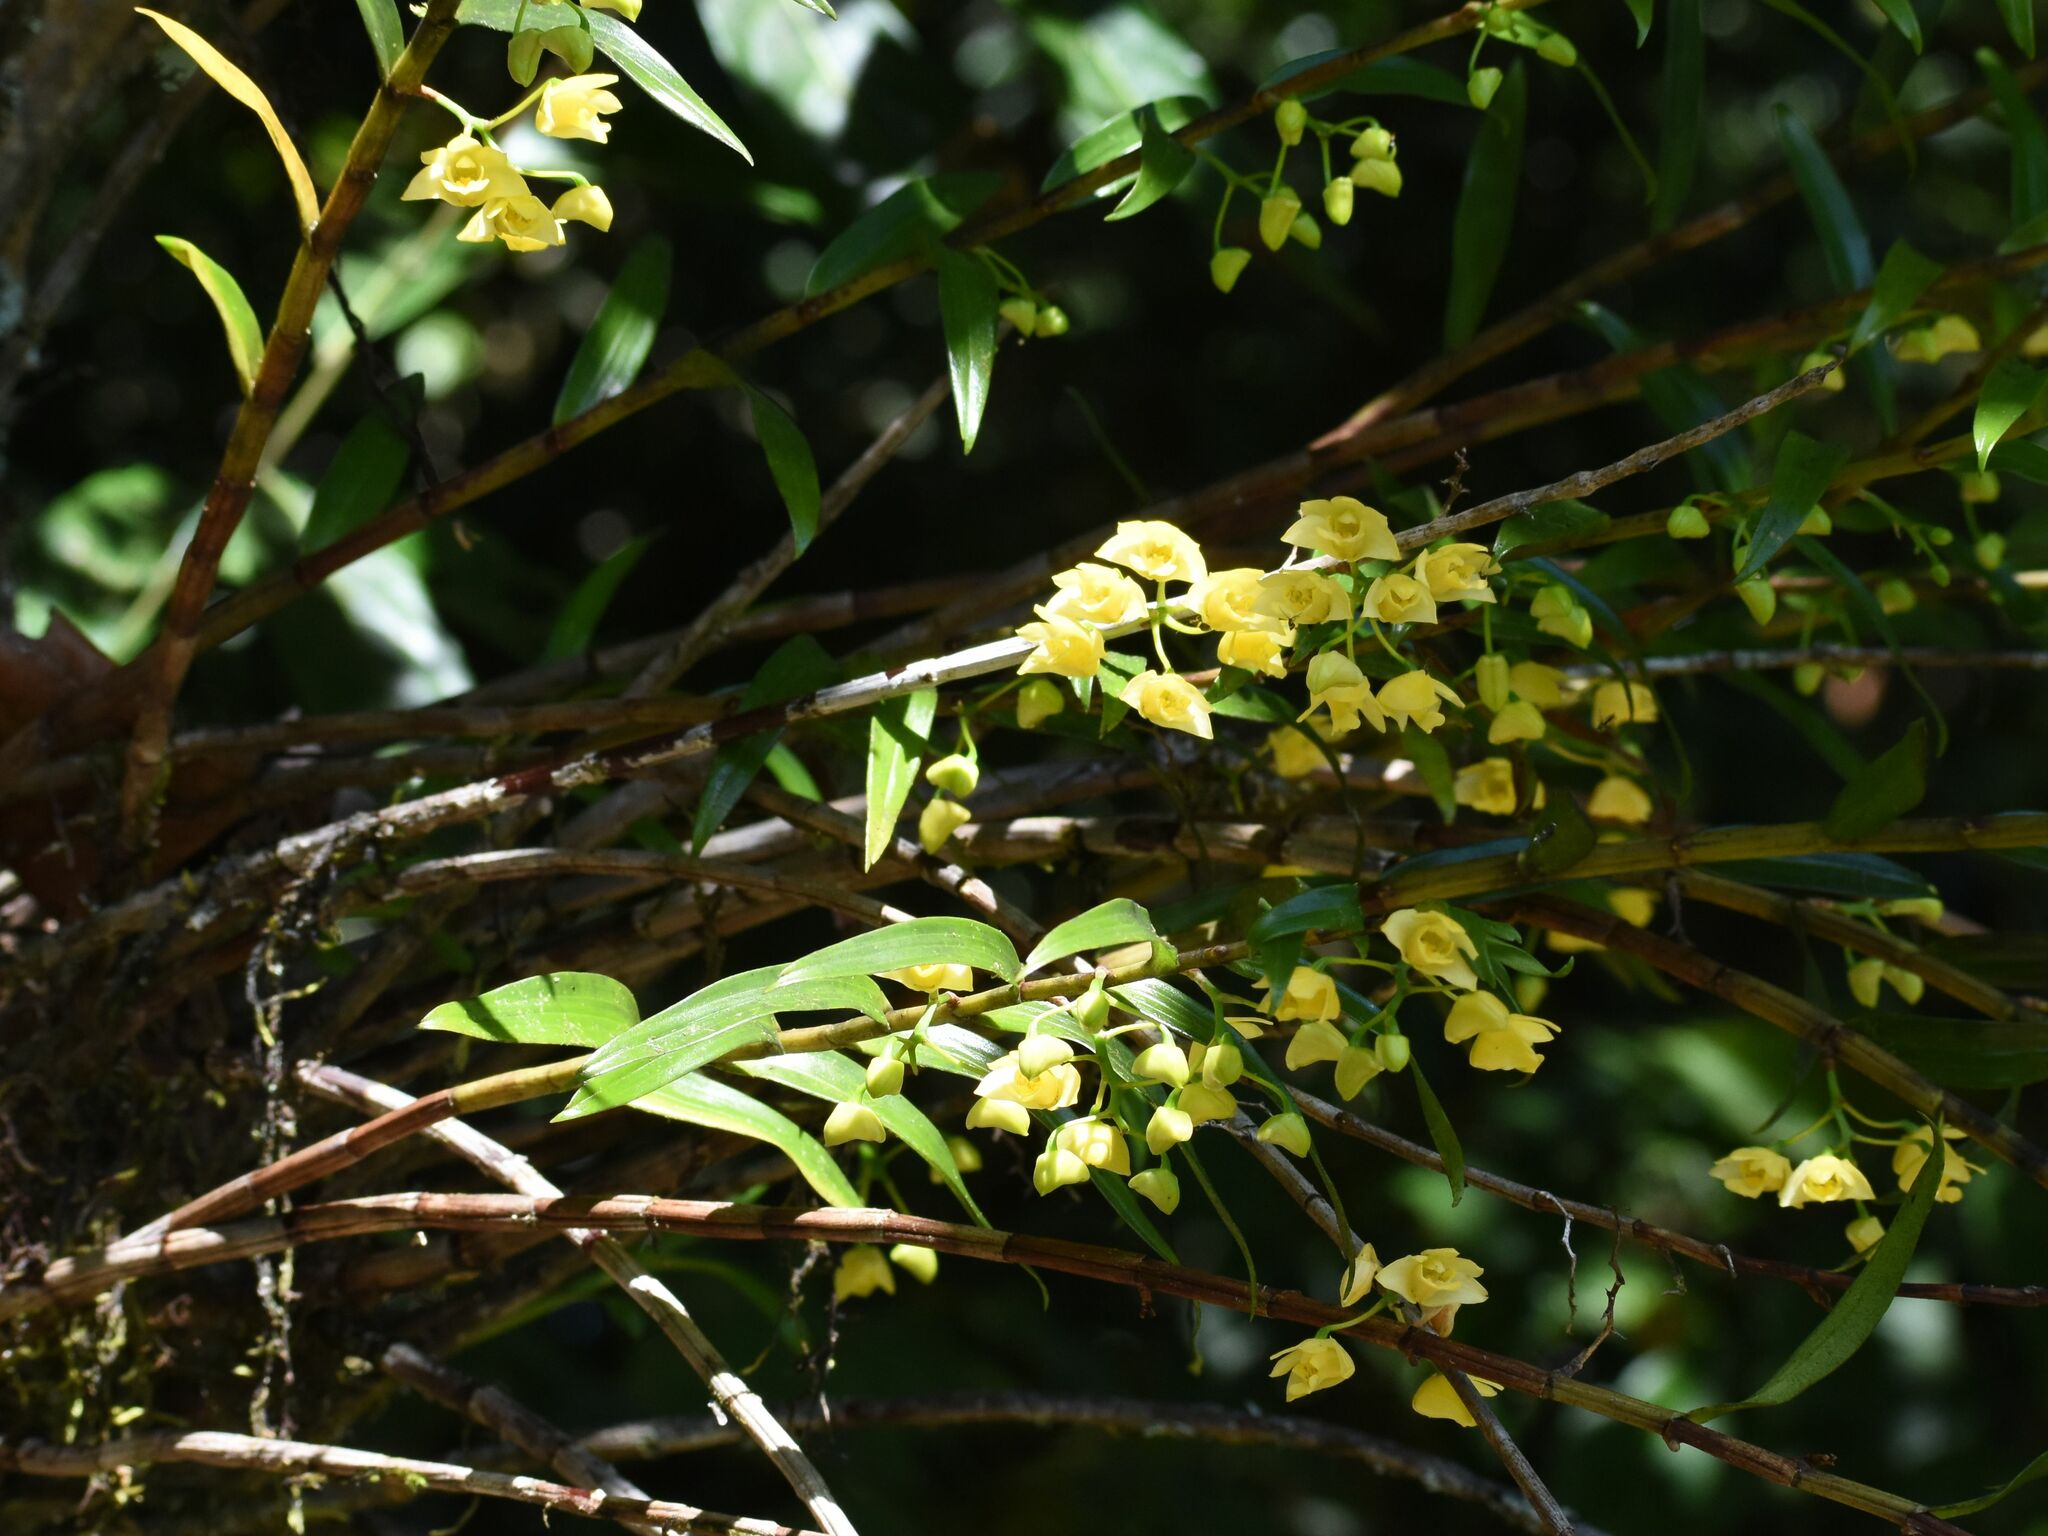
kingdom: Plantae
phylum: Tracheophyta
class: Liliopsida
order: Asparagales
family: Orchidaceae
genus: Dendrobium
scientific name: Dendrobium agrostophyllum
